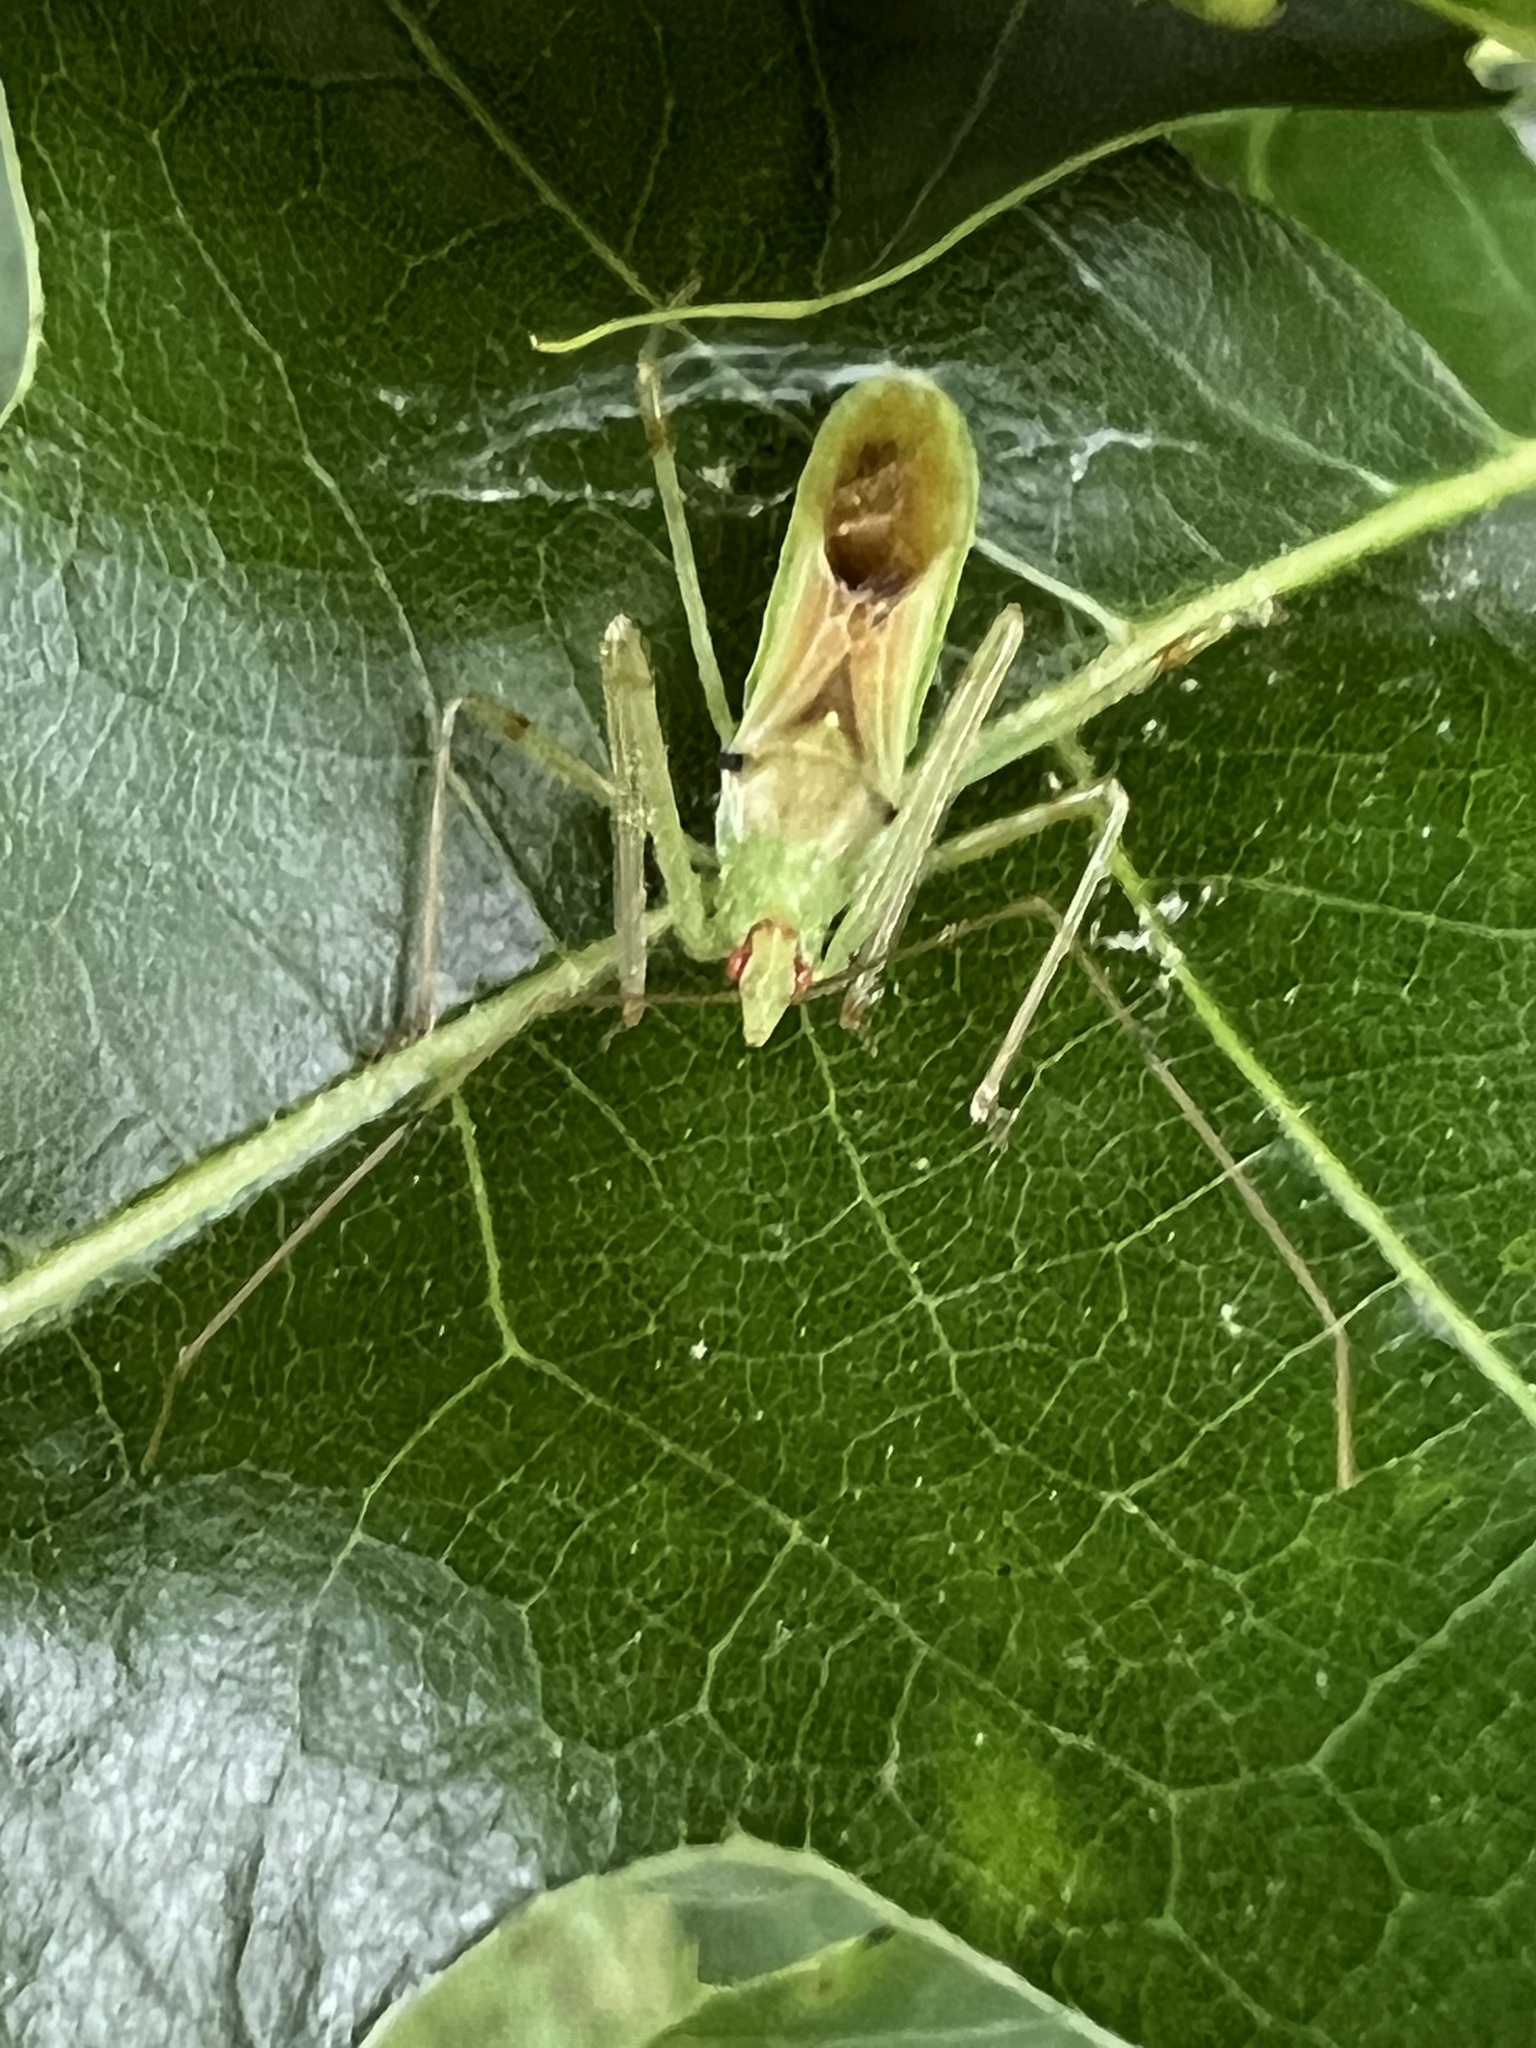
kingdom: Animalia
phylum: Arthropoda
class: Insecta
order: Hemiptera
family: Reduviidae
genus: Zelus
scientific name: Zelus luridus
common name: Pale green assassin bug
